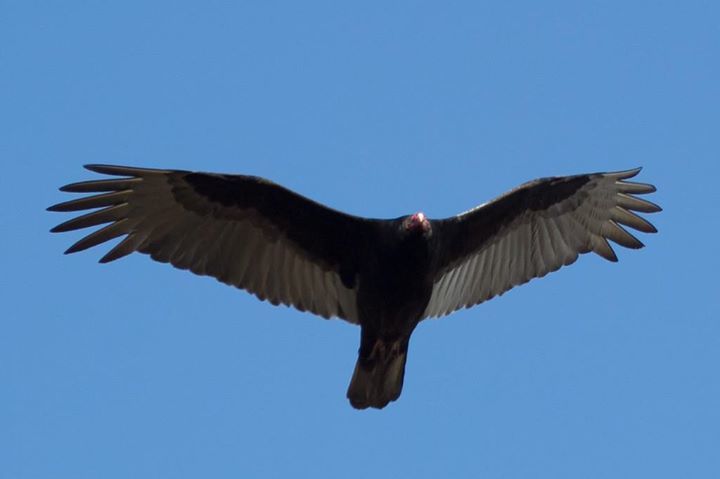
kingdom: Animalia
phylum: Chordata
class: Aves
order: Accipitriformes
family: Cathartidae
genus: Cathartes
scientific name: Cathartes aura
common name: Turkey vulture
